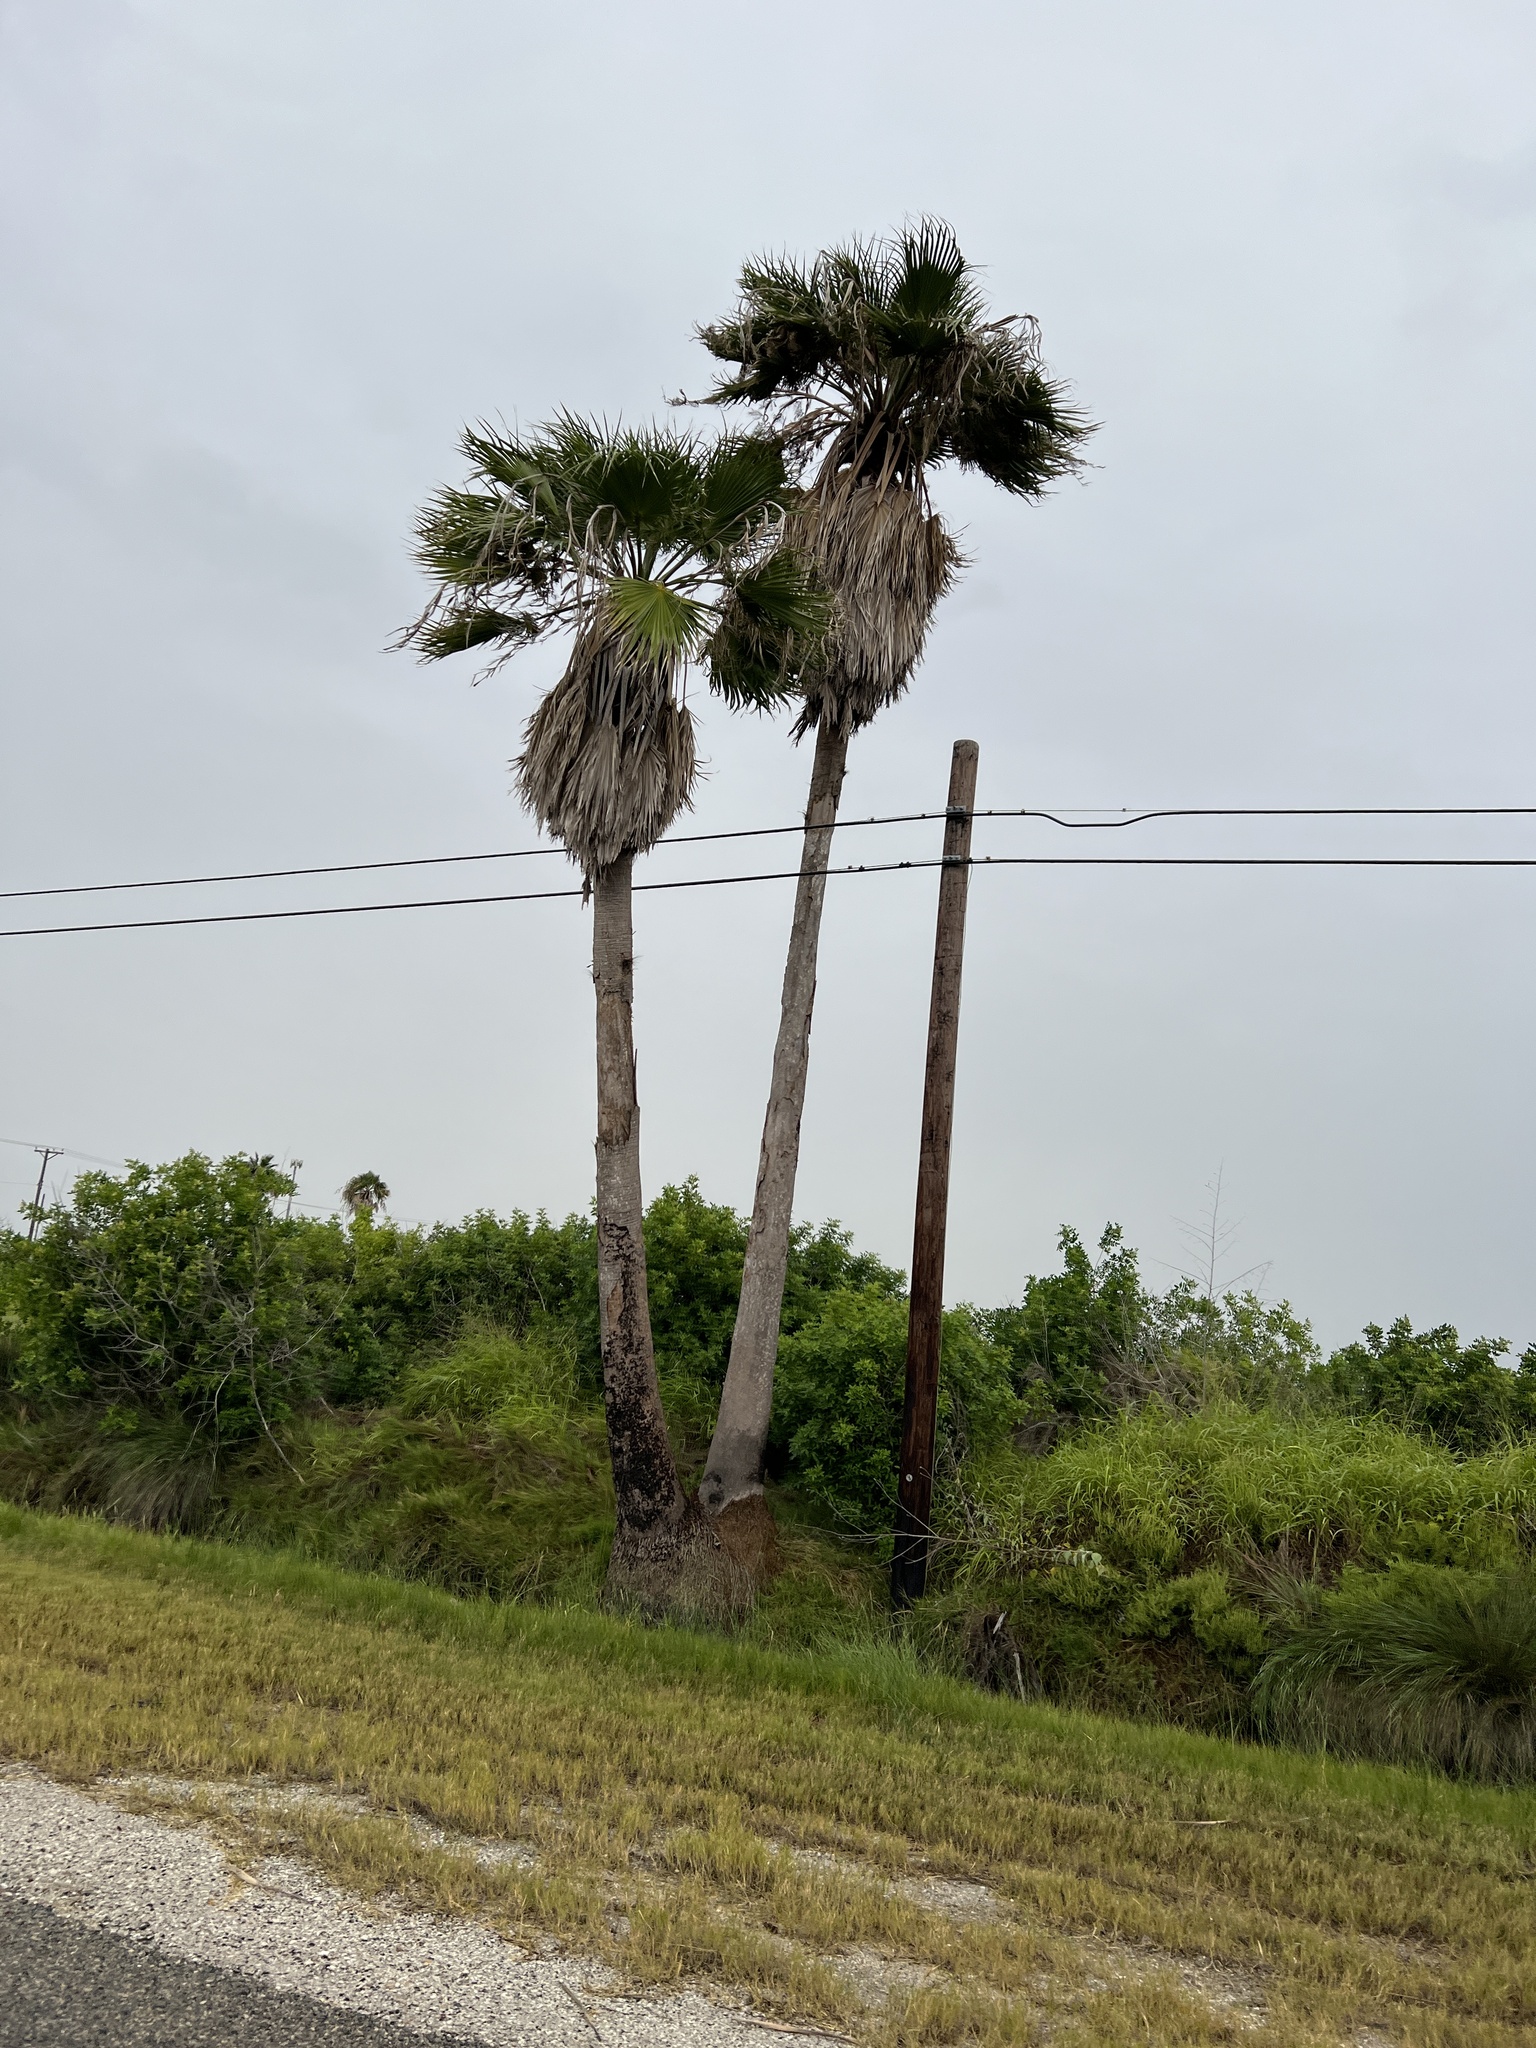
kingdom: Plantae
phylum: Tracheophyta
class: Liliopsida
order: Arecales
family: Arecaceae
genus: Washingtonia
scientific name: Washingtonia robusta
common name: Mexican fan palm
